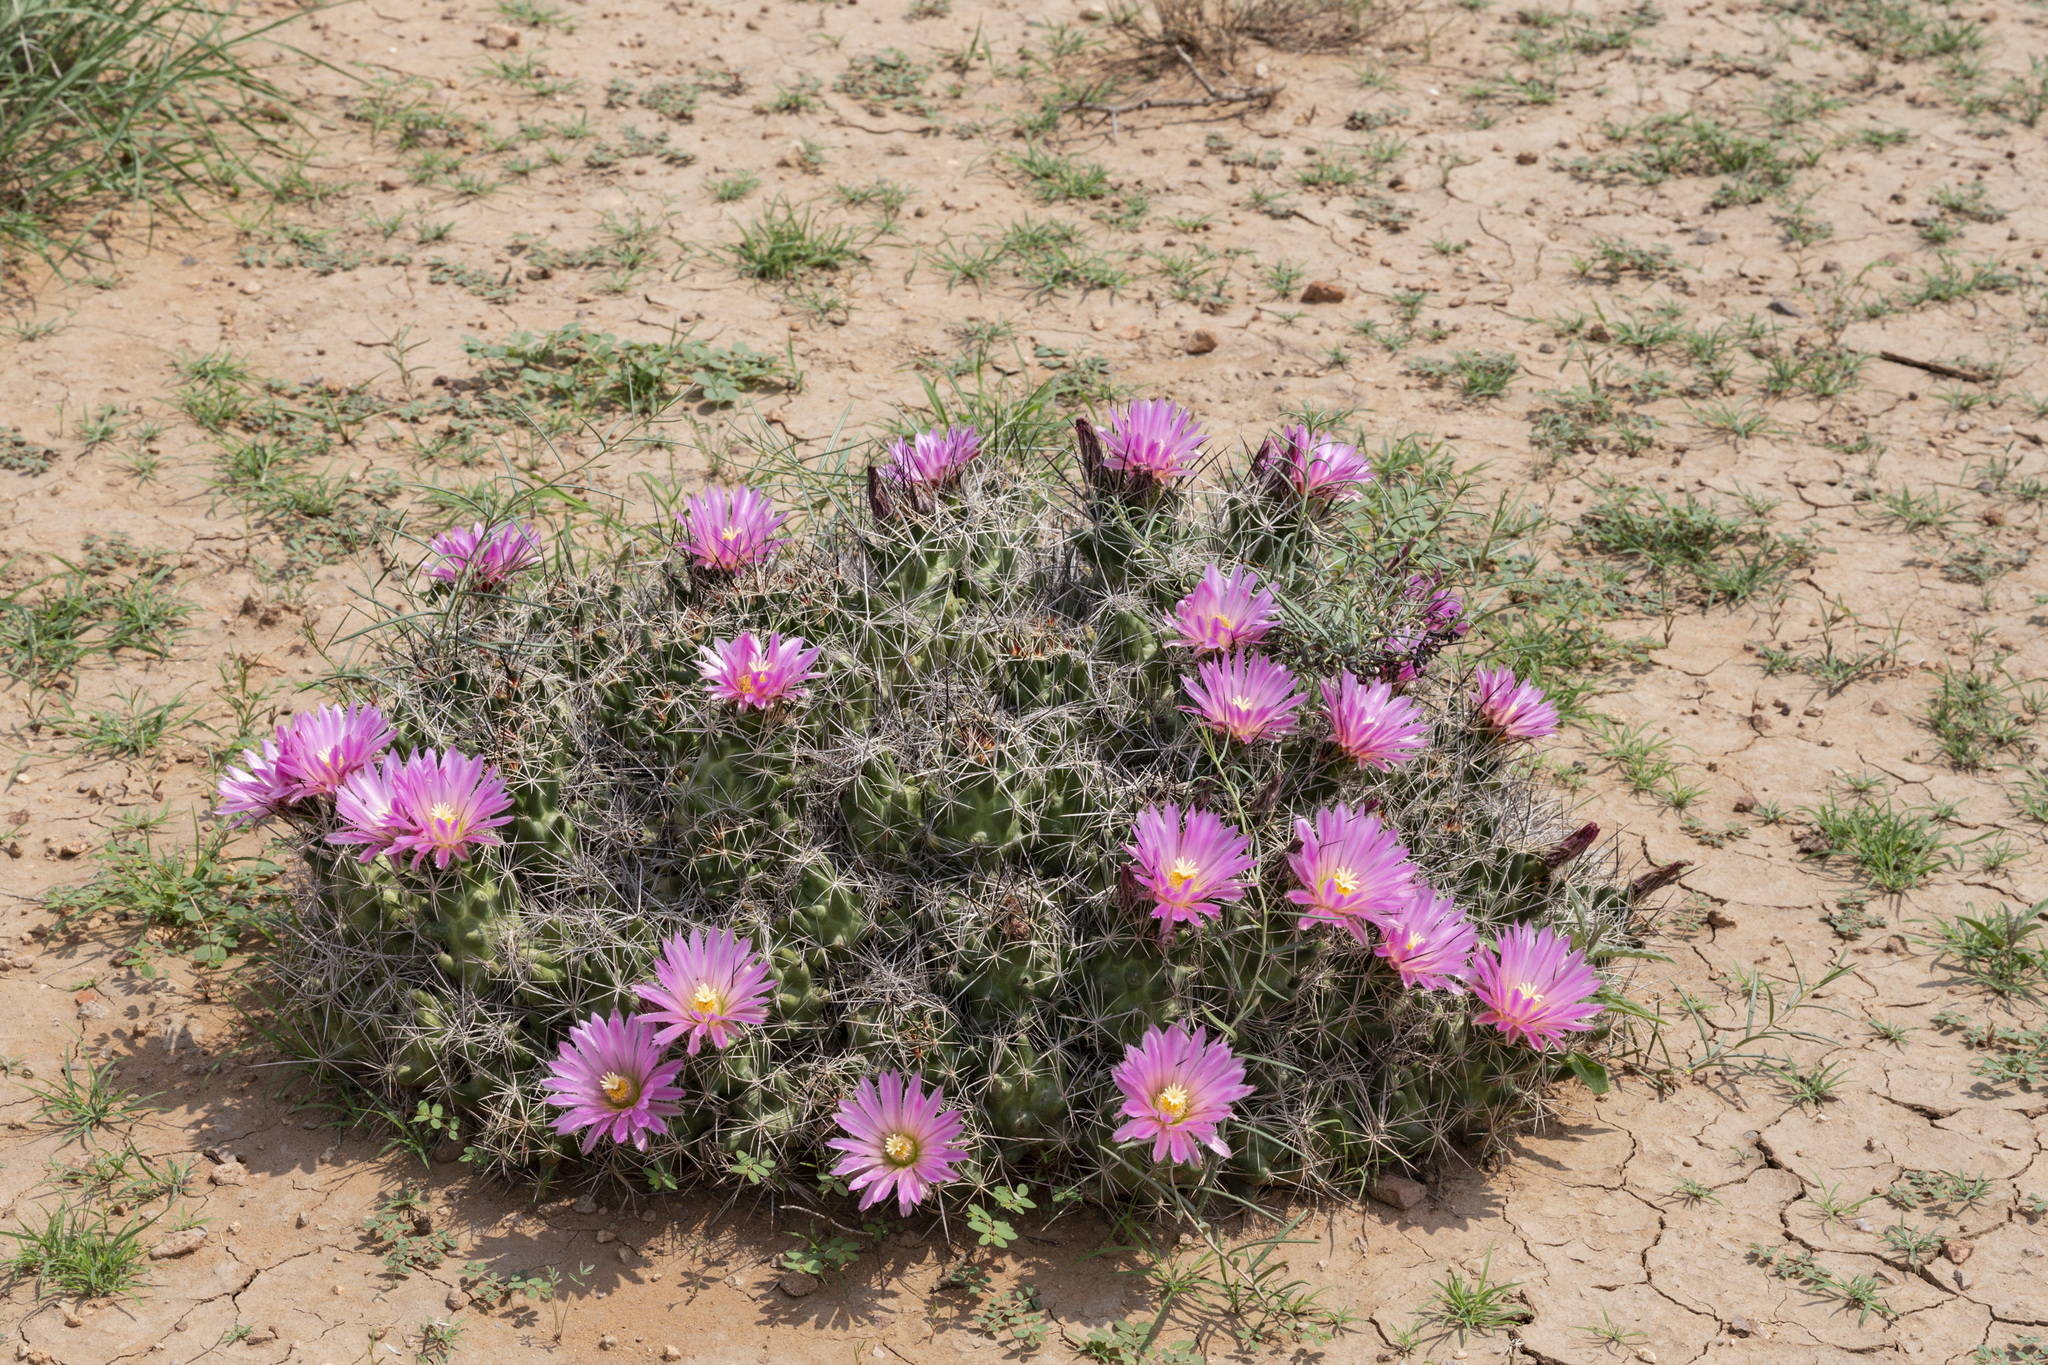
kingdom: Plantae
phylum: Tracheophyta
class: Magnoliopsida
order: Caryophyllales
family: Cactaceae
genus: Coryphantha
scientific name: Coryphantha macromeris
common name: Nipple beehive cactus
